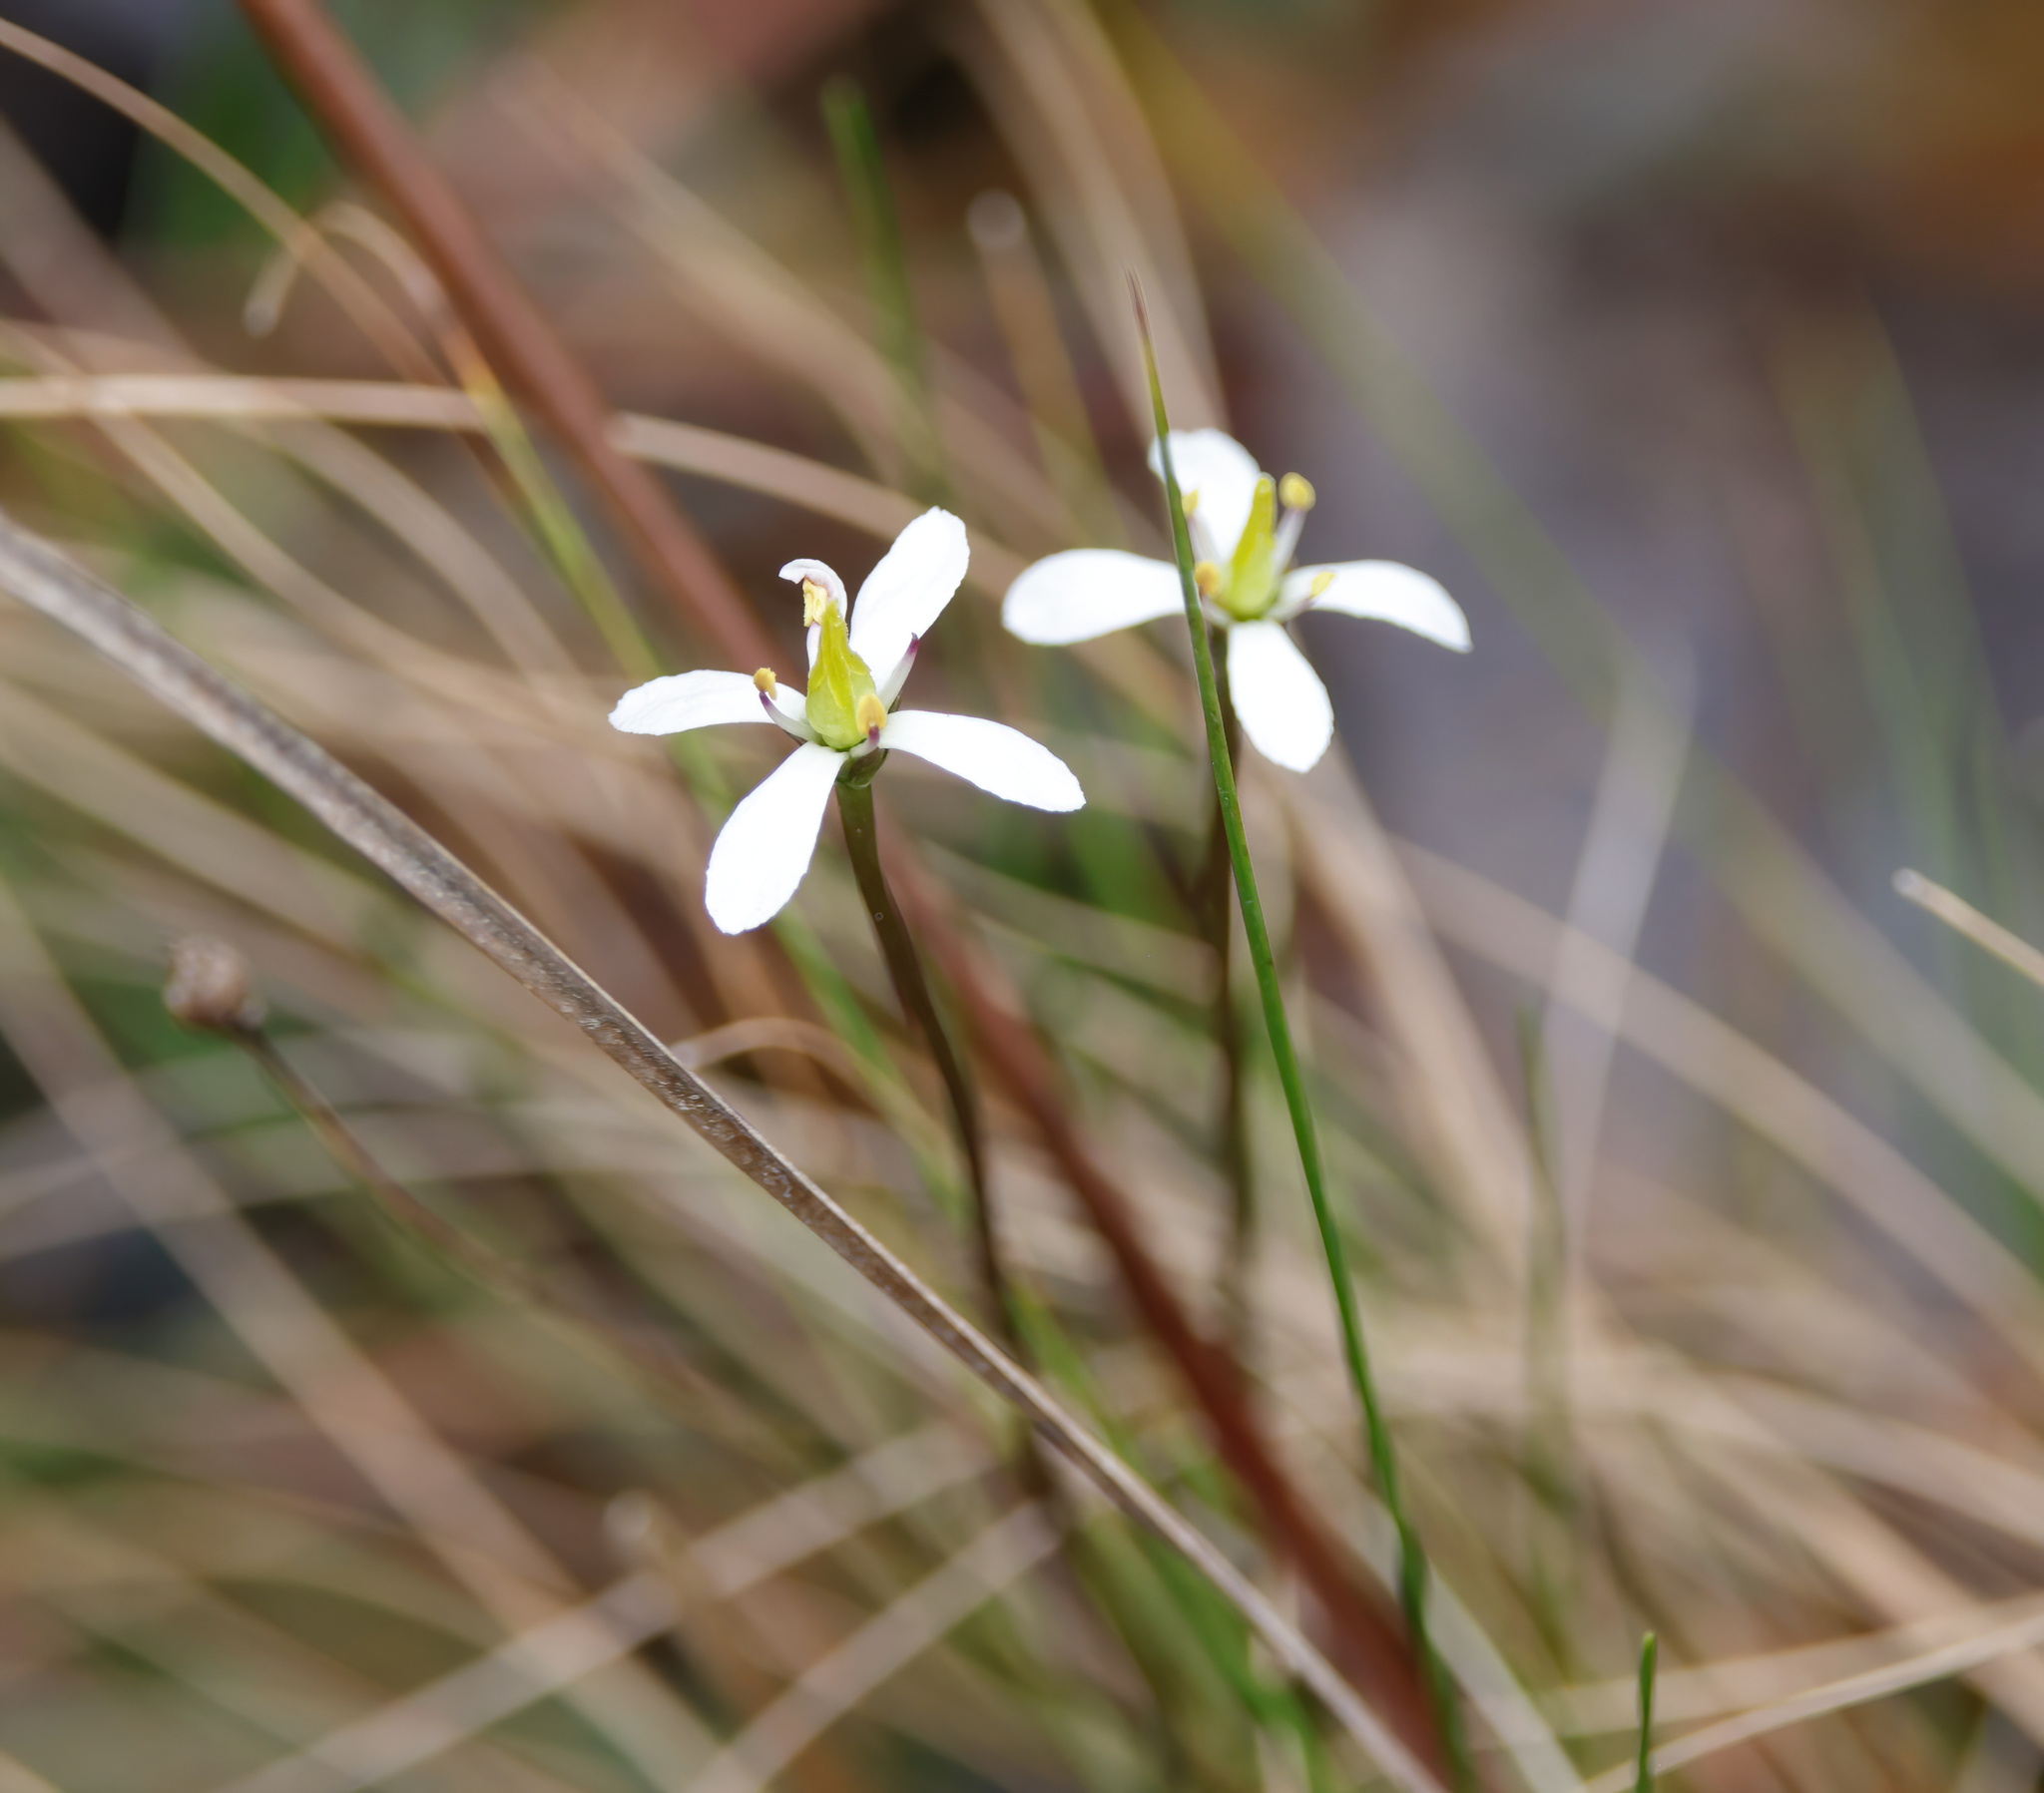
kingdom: Plantae
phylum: Tracheophyta
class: Magnoliopsida
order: Gentianales
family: Gentianaceae
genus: Bartonia
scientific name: Bartonia verna
